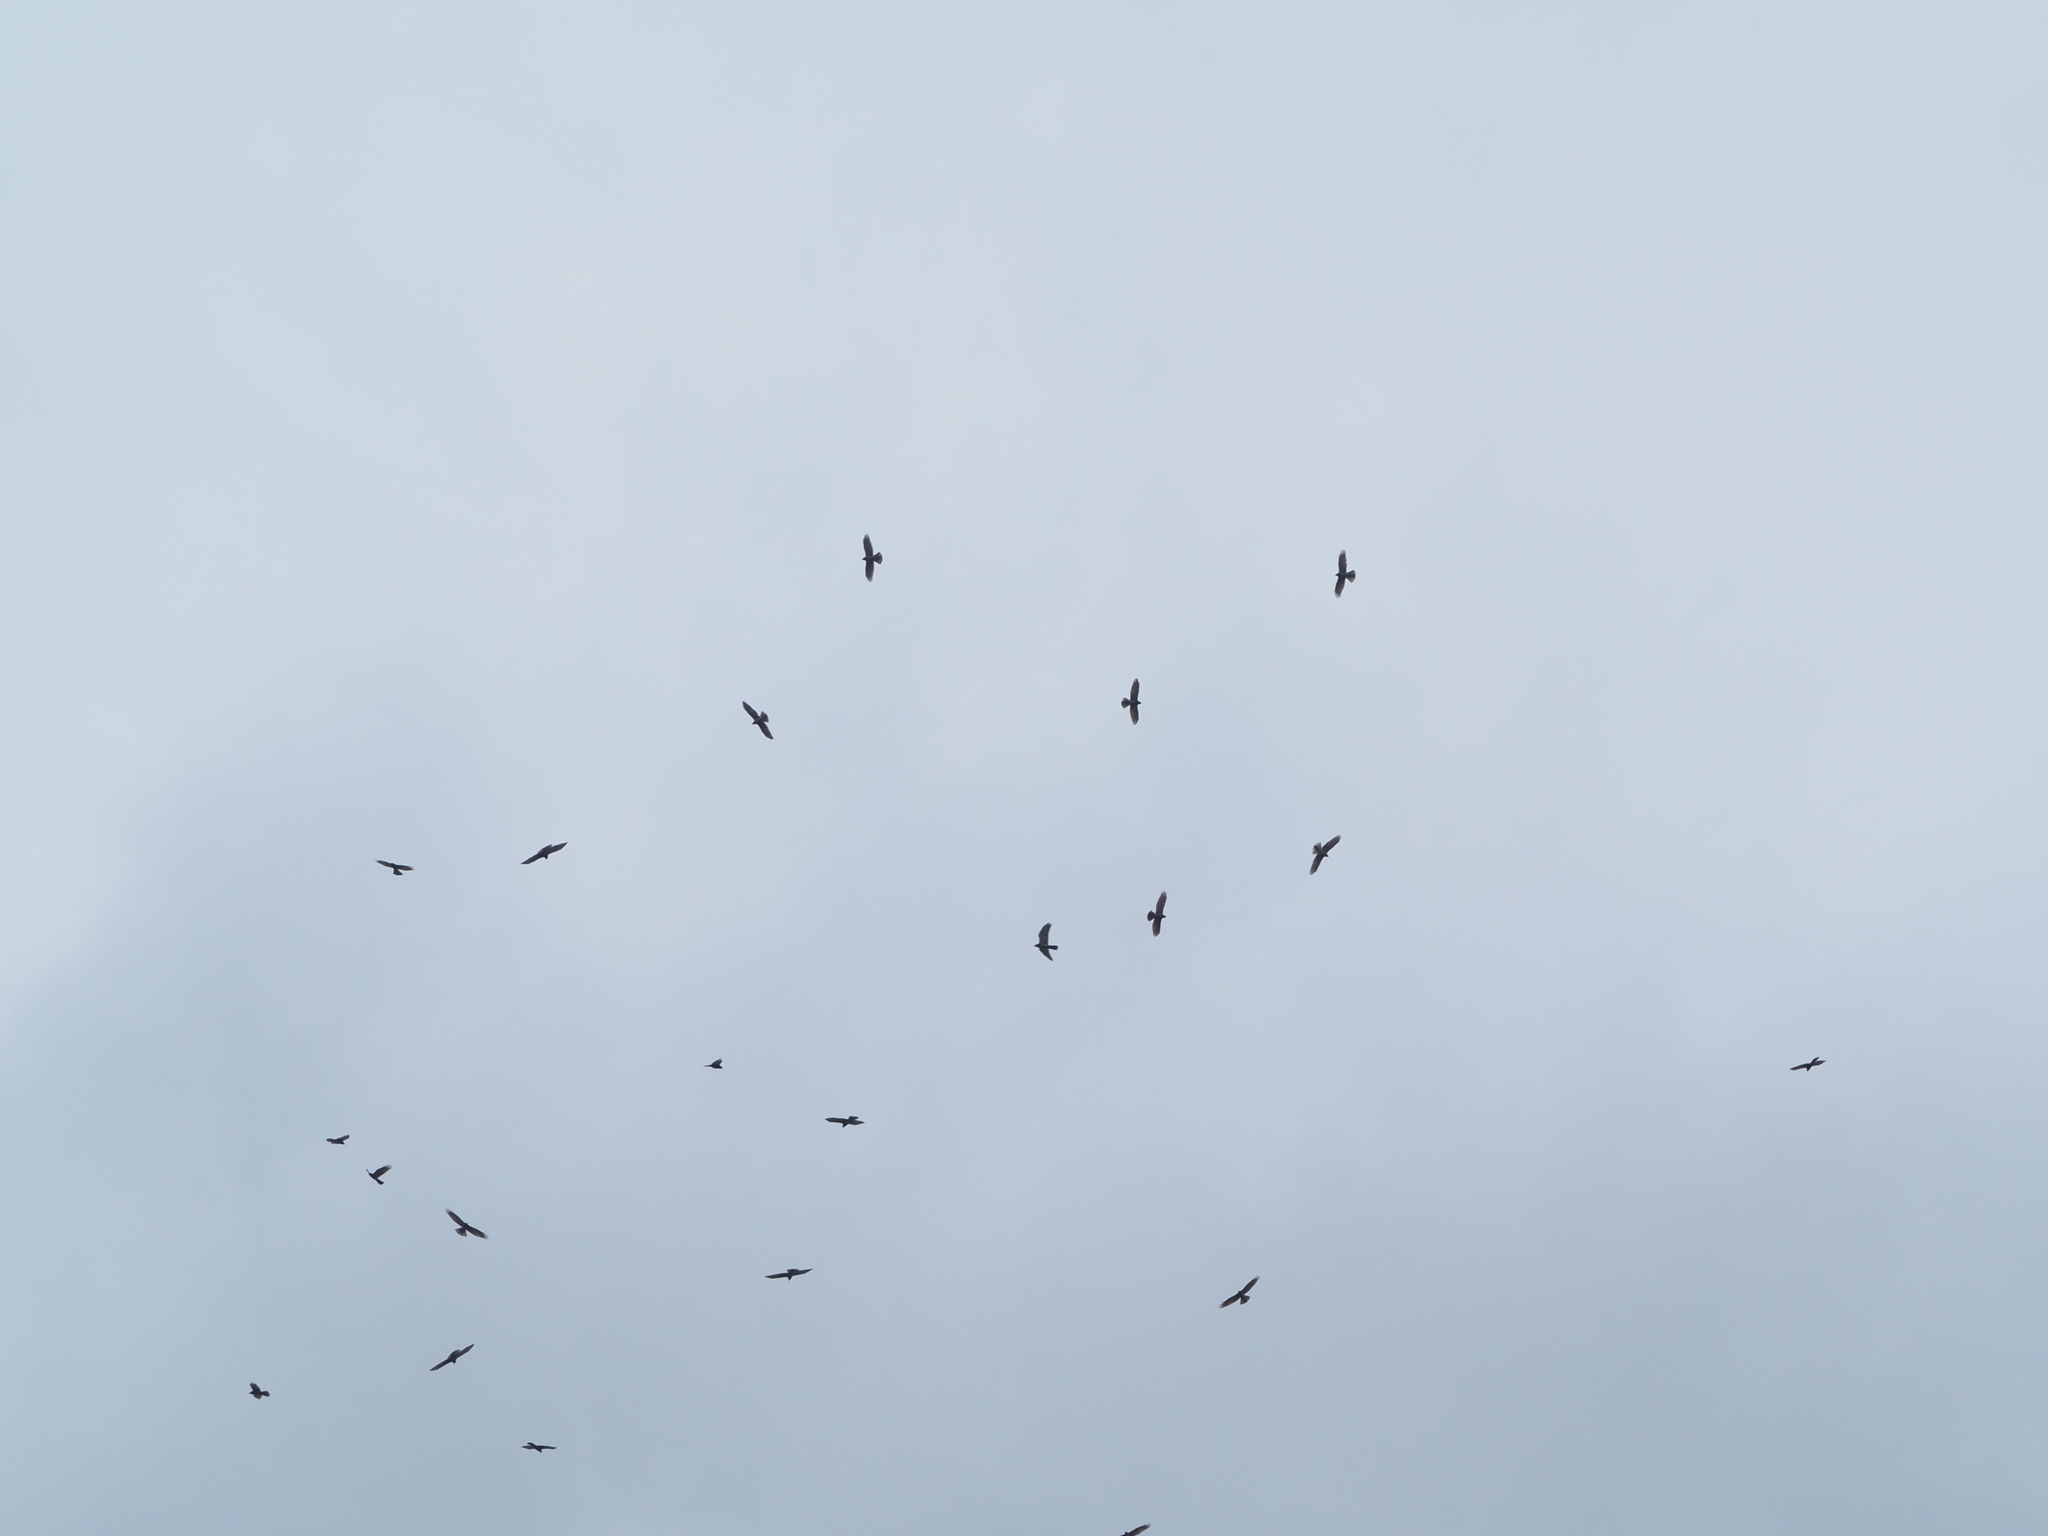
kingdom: Animalia
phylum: Chordata
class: Aves
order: Accipitriformes
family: Accipitridae
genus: Butastur
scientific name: Butastur indicus
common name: Grey-faced buzzard
